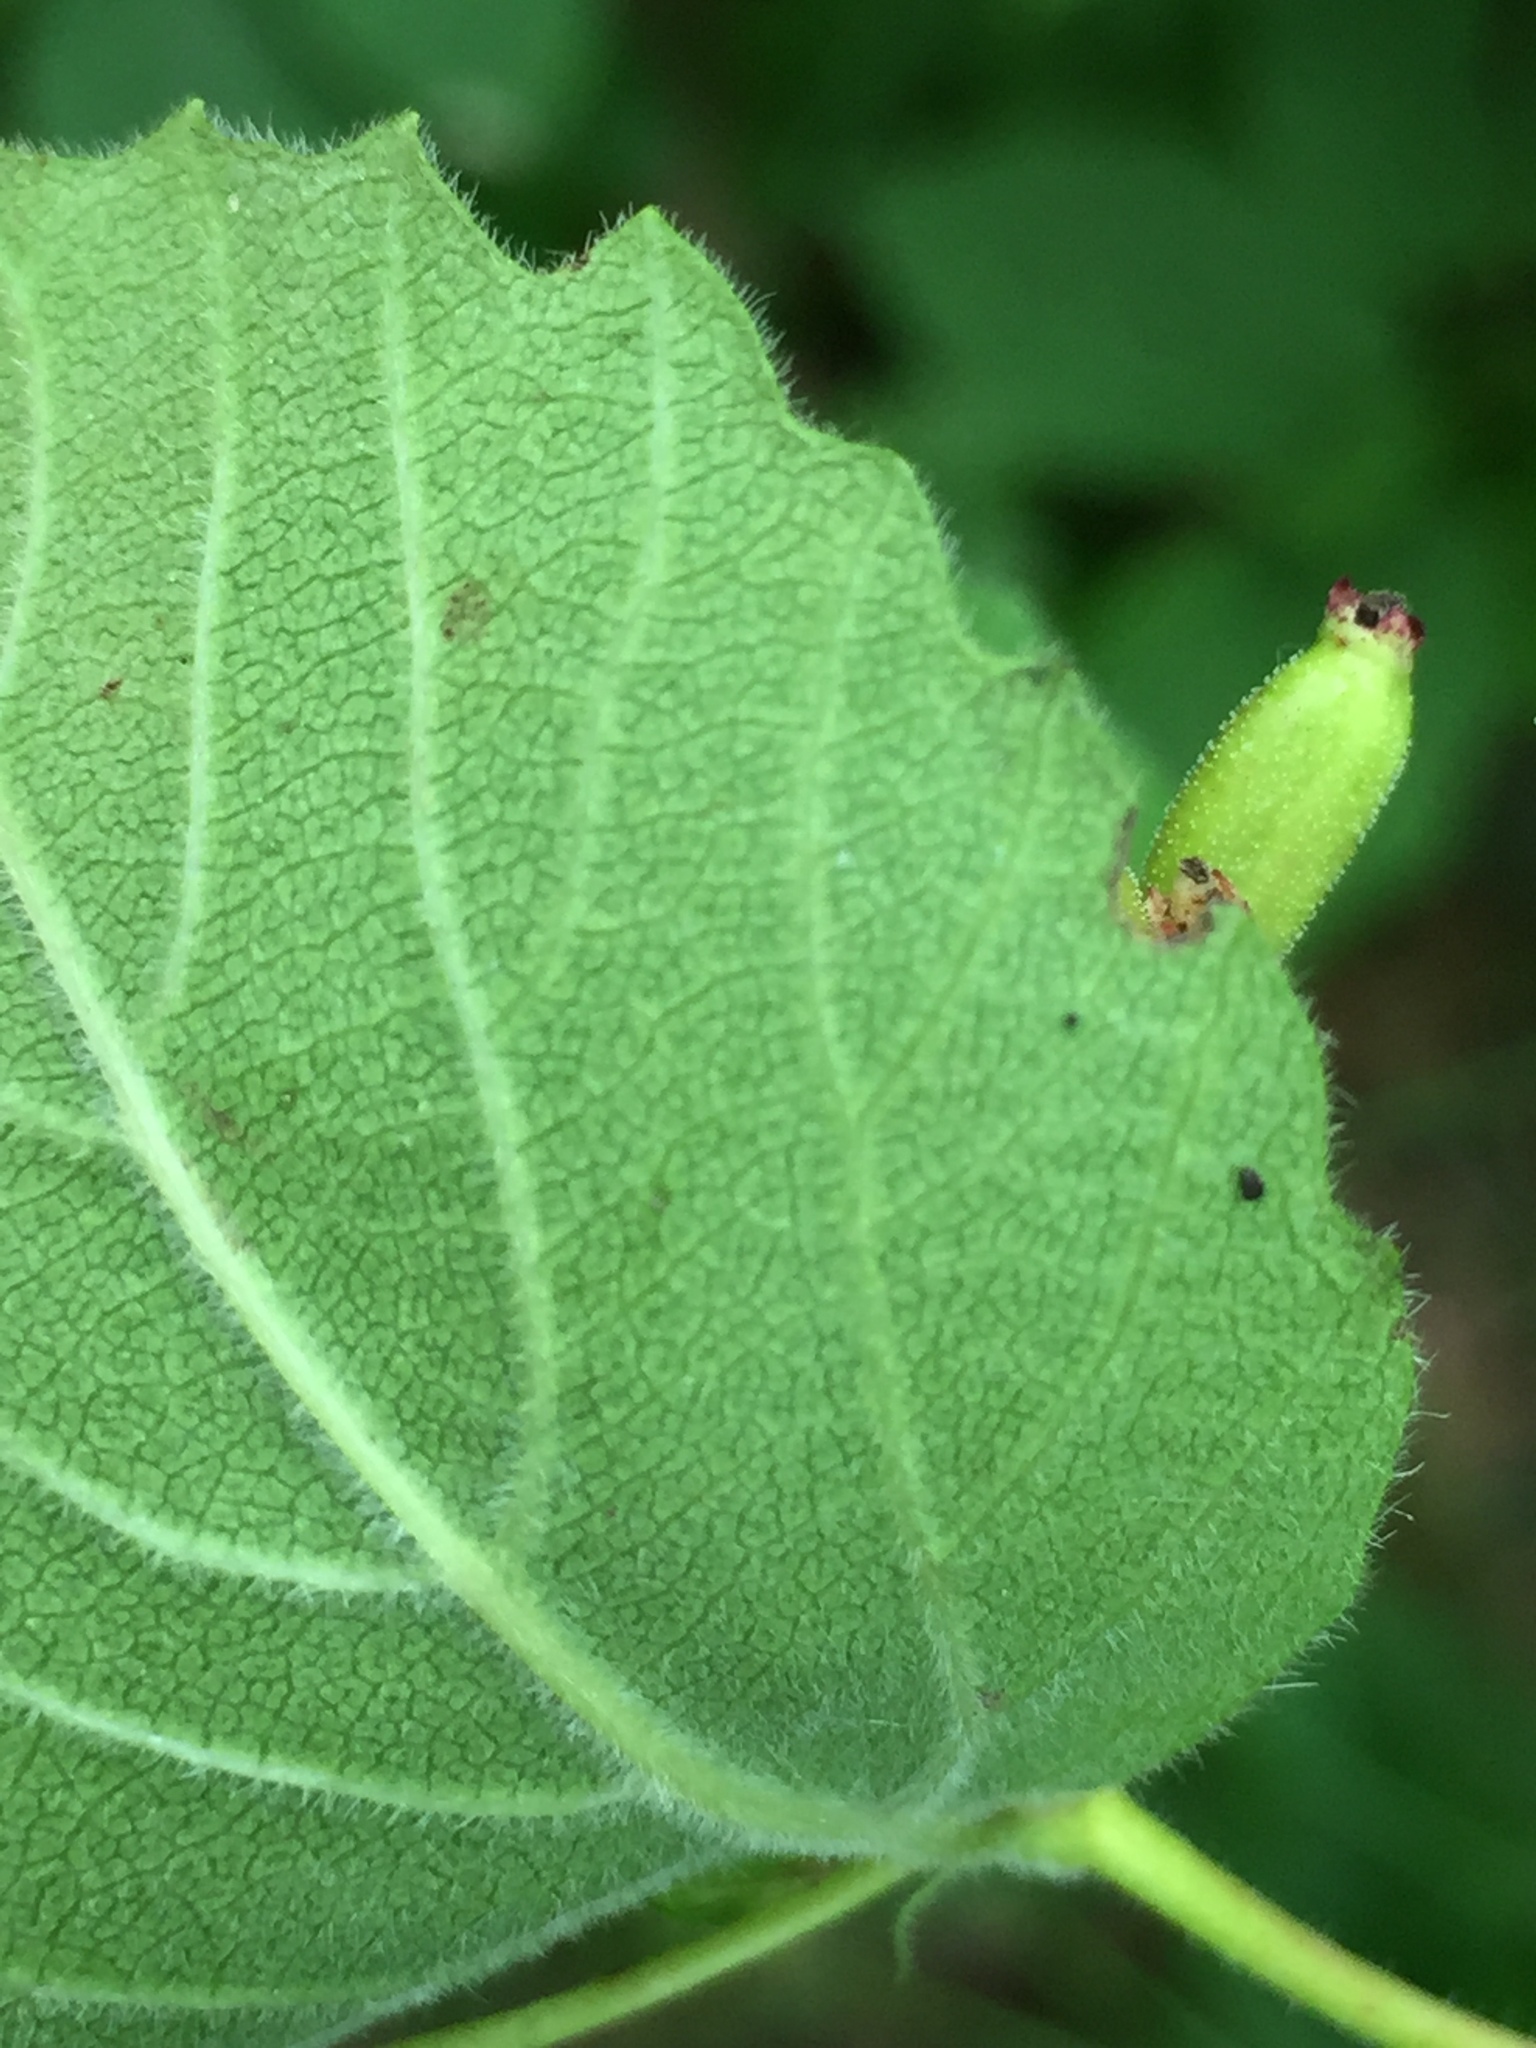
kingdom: Plantae
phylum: Tracheophyta
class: Magnoliopsida
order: Dipsacales
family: Viburnaceae
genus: Viburnum
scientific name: Viburnum rafinesqueanum
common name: Downy arrow-wood
